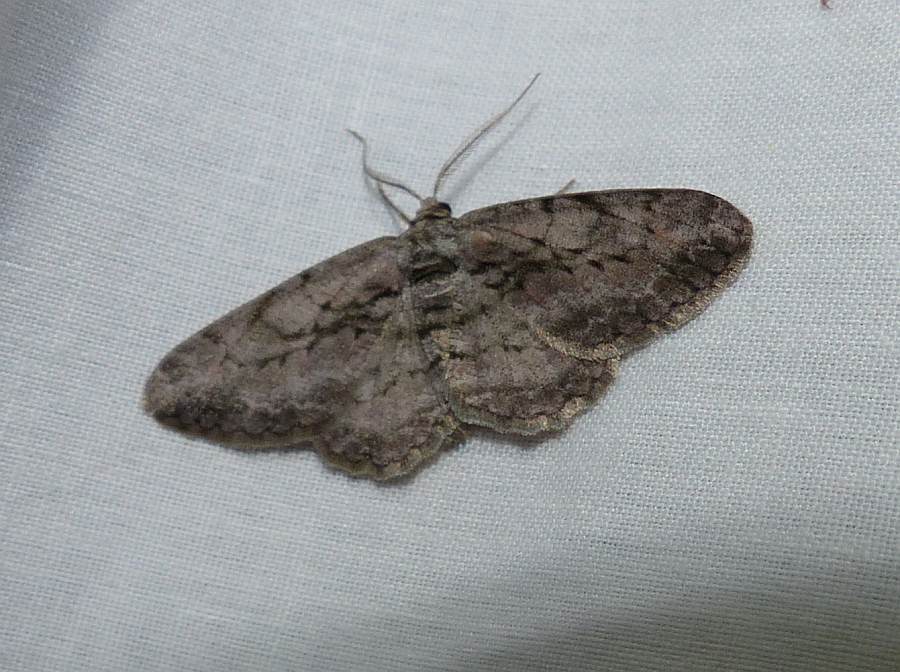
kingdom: Animalia
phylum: Arthropoda
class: Insecta
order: Lepidoptera
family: Geometridae
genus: Anavitrinella
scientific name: Anavitrinella pampinaria
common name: Common gray
